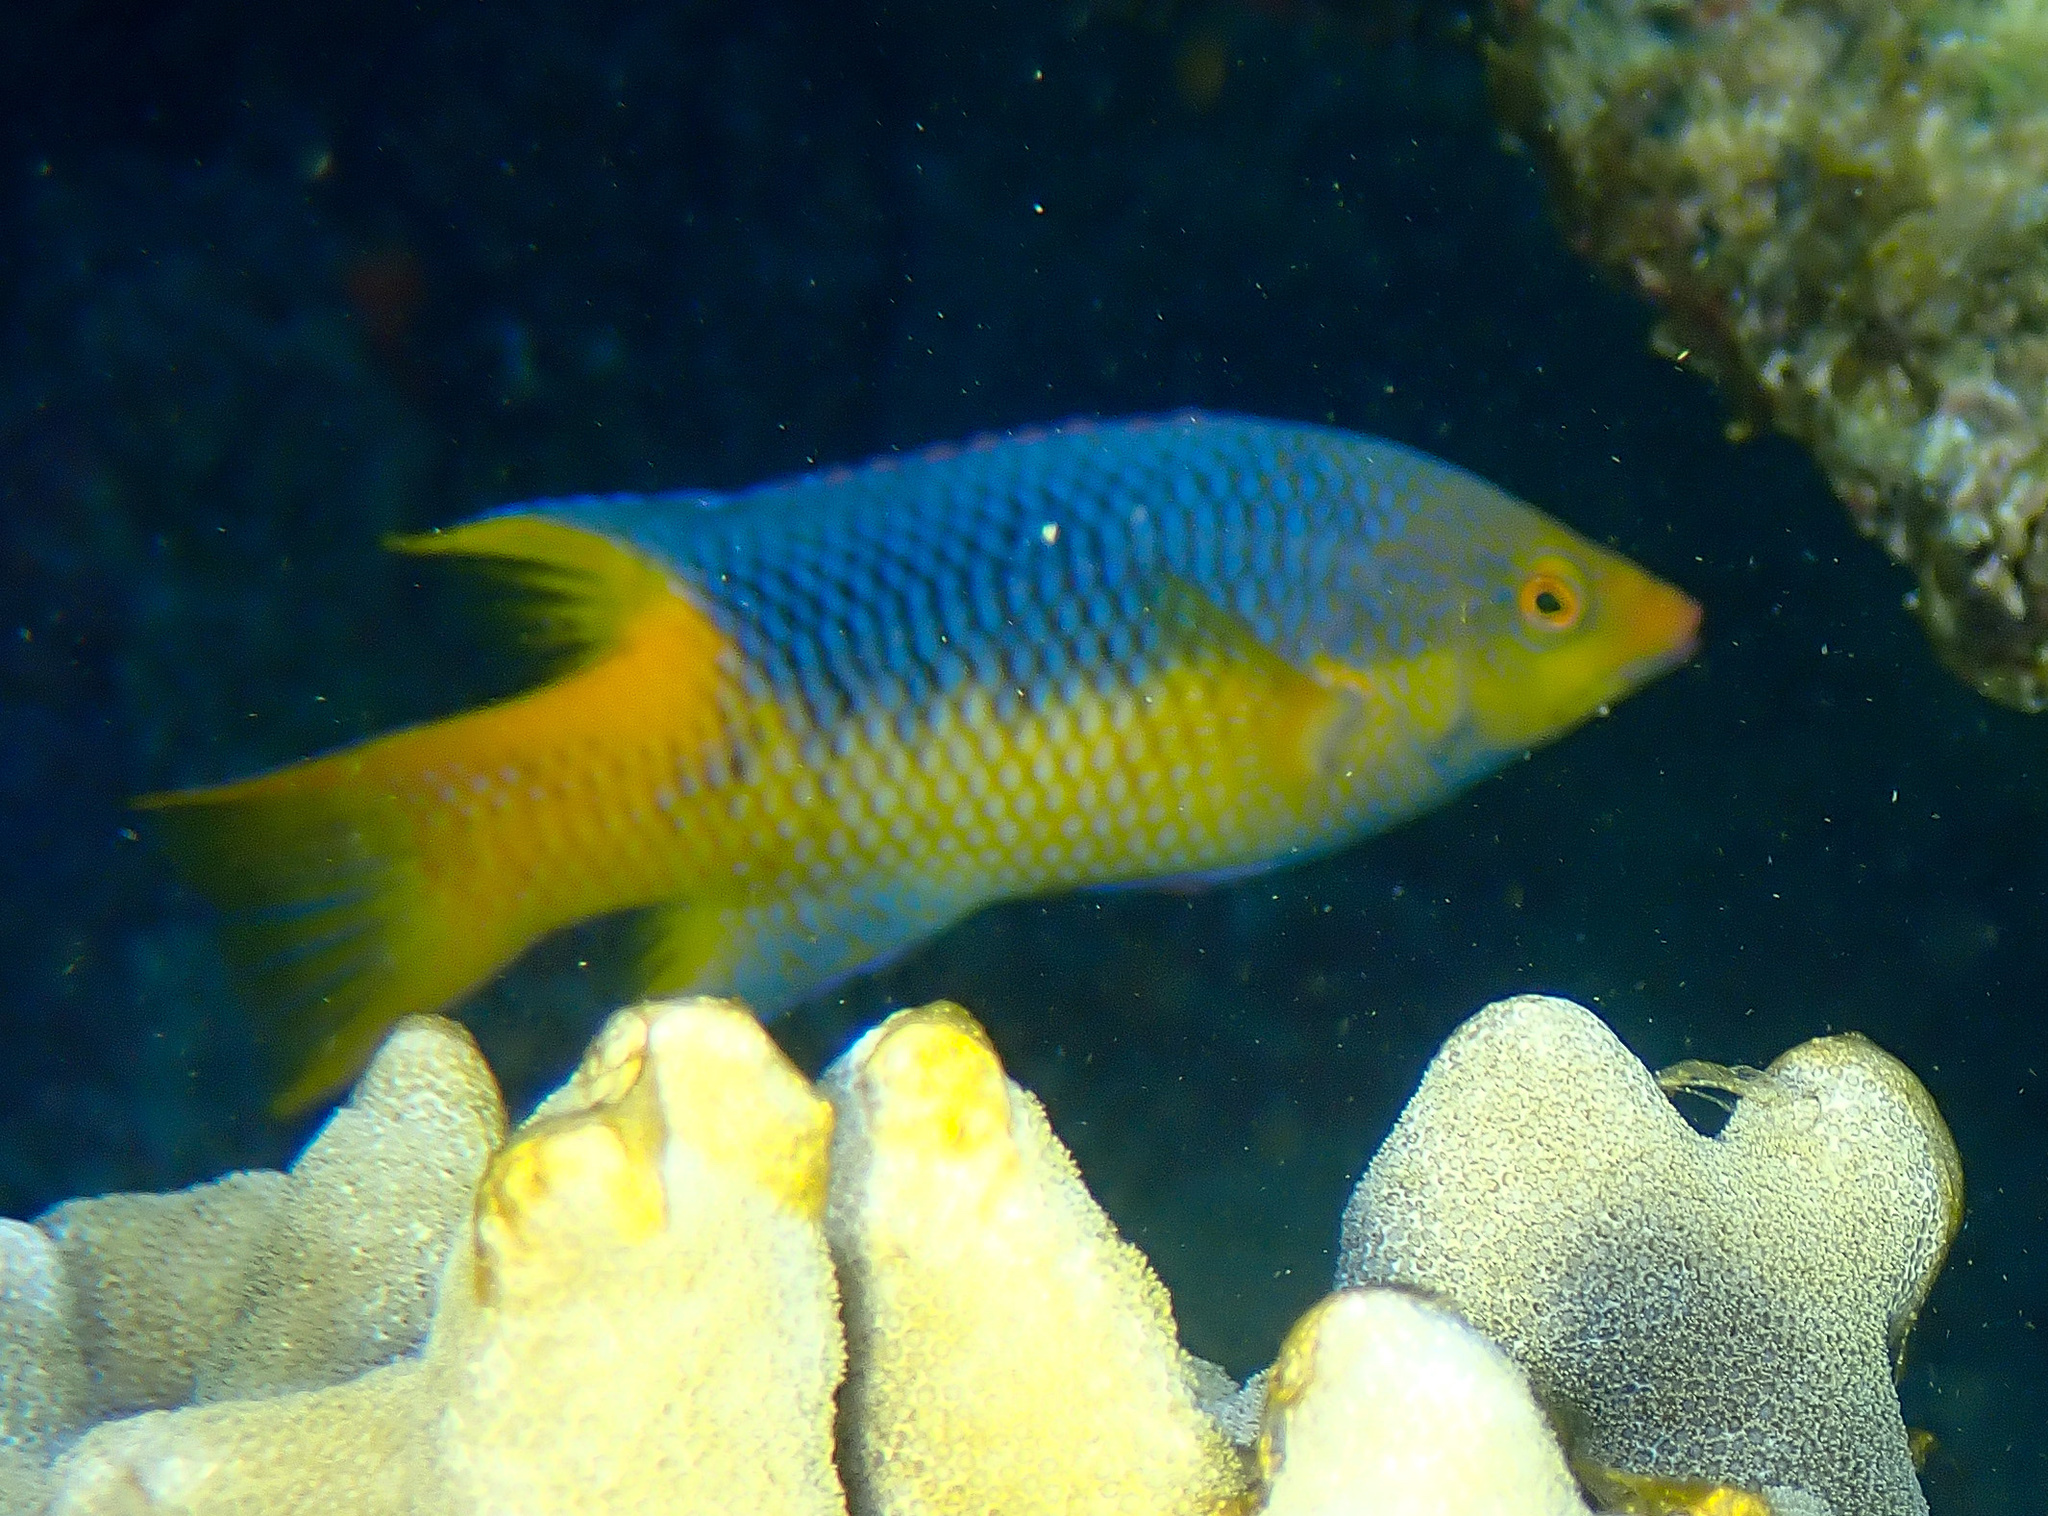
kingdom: Animalia
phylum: Chordata
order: Perciformes
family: Labridae
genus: Bodianus
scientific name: Bodianus rufus
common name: Spanish hogfish
